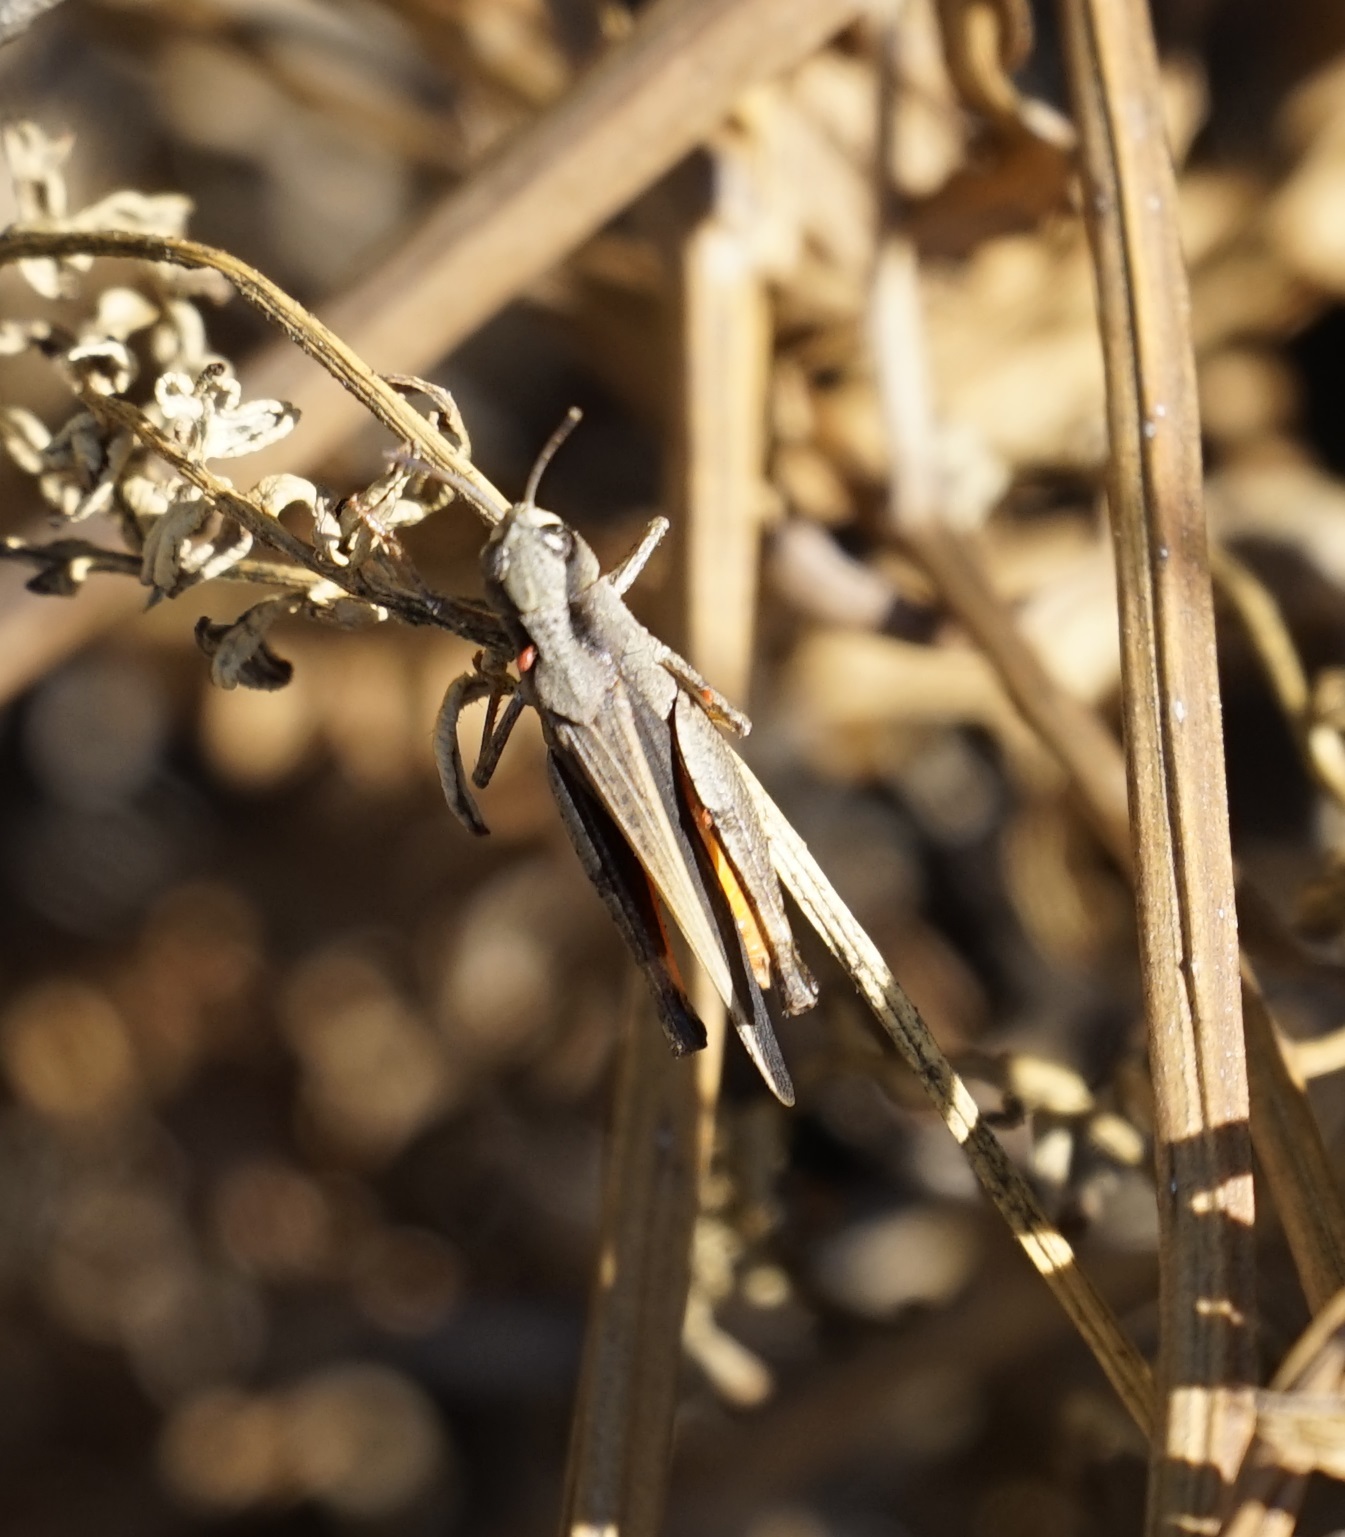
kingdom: Animalia
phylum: Arthropoda
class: Insecta
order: Orthoptera
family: Acrididae
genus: Cryptobothrus
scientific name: Cryptobothrus chrysophorus
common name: Golden bandwing
